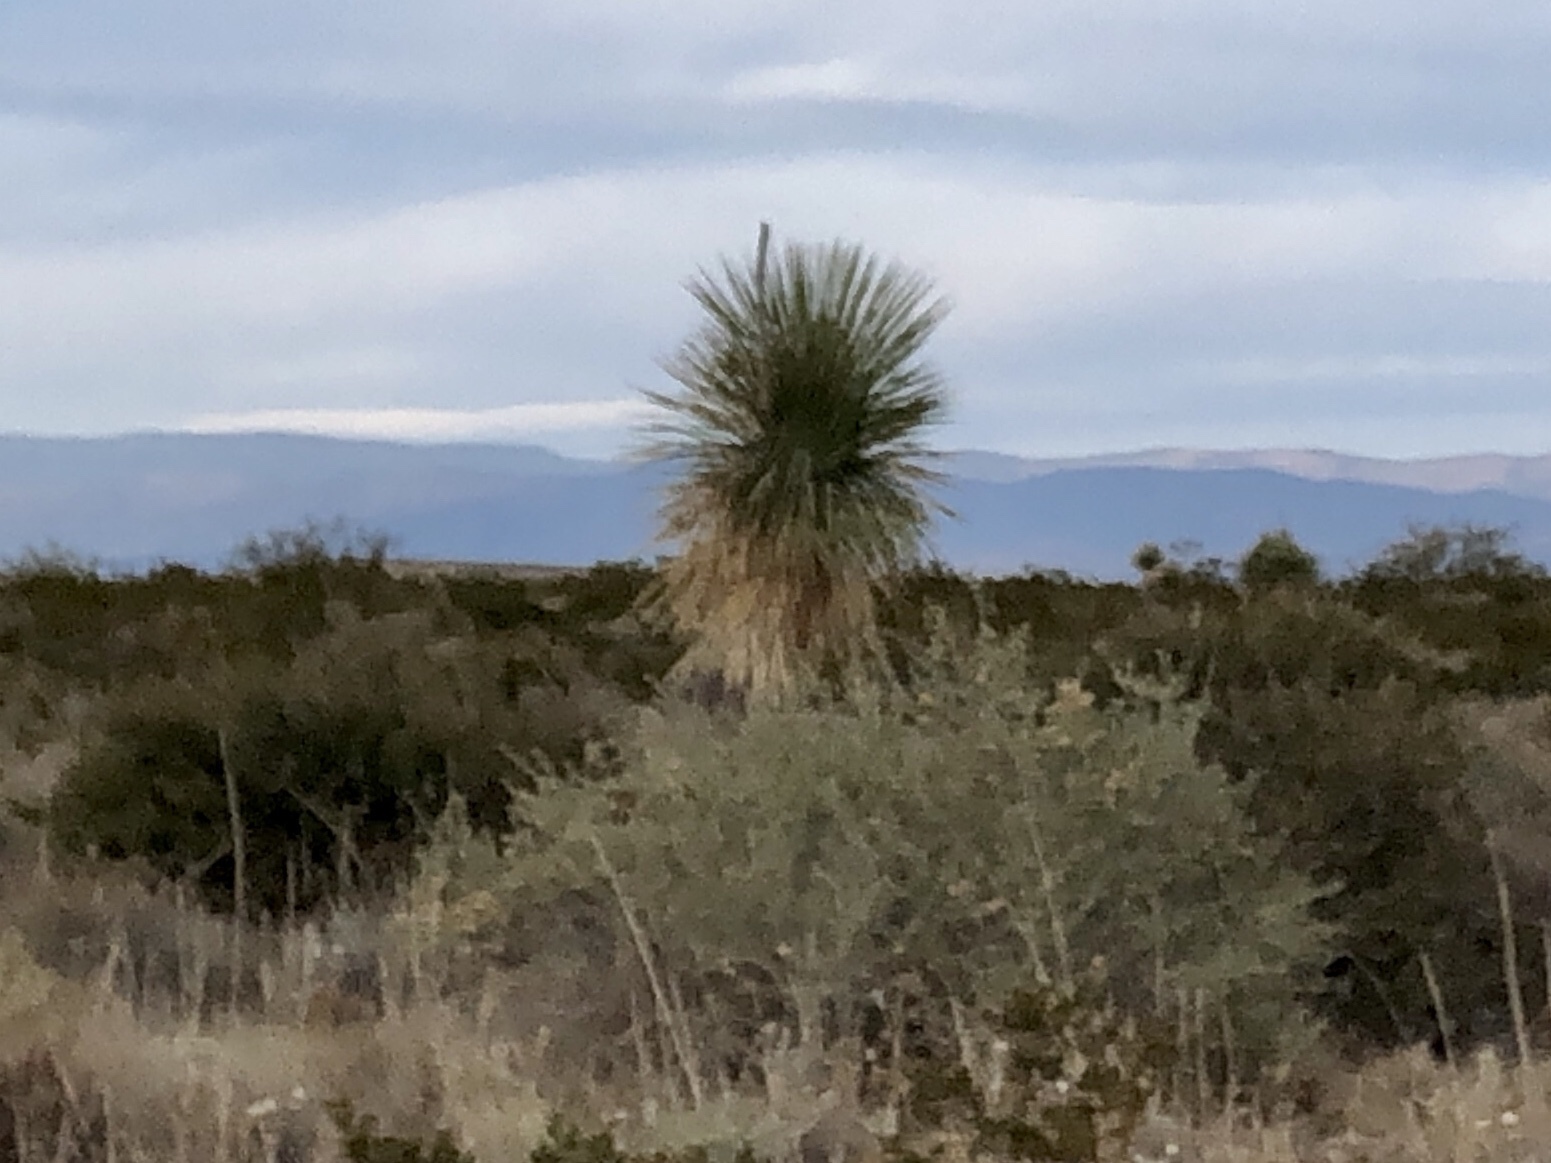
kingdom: Plantae
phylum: Tracheophyta
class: Liliopsida
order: Asparagales
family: Asparagaceae
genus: Yucca
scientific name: Yucca elata
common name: Palmella
